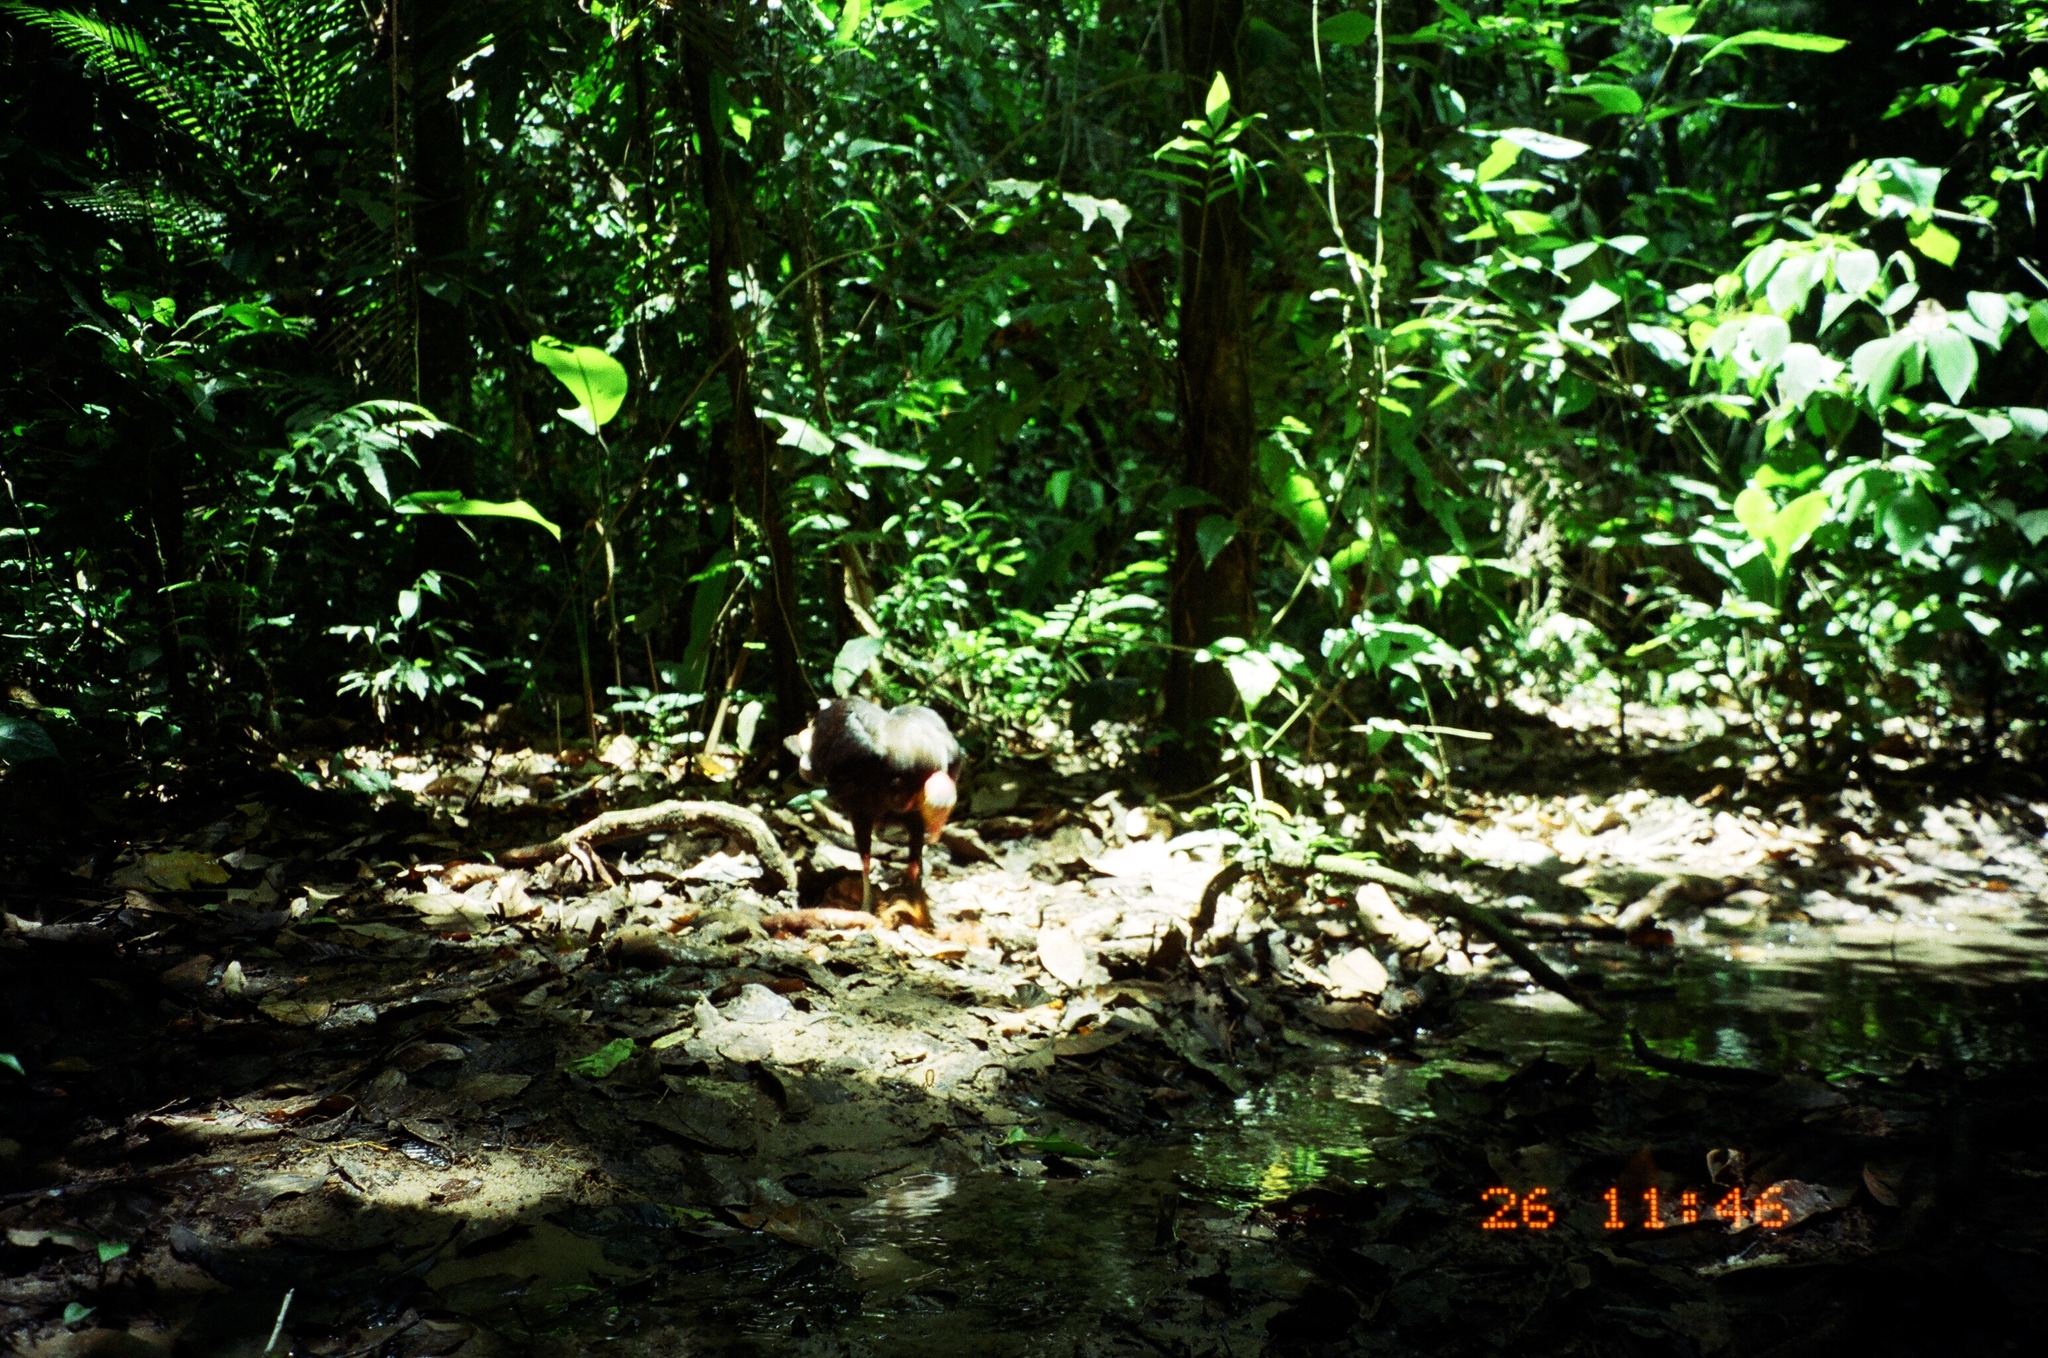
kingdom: Animalia
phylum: Chordata
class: Aves
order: Accipitriformes
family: Cathartidae
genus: Cathartes
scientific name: Cathartes melambrotus
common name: Greater yellow-headed vulture
